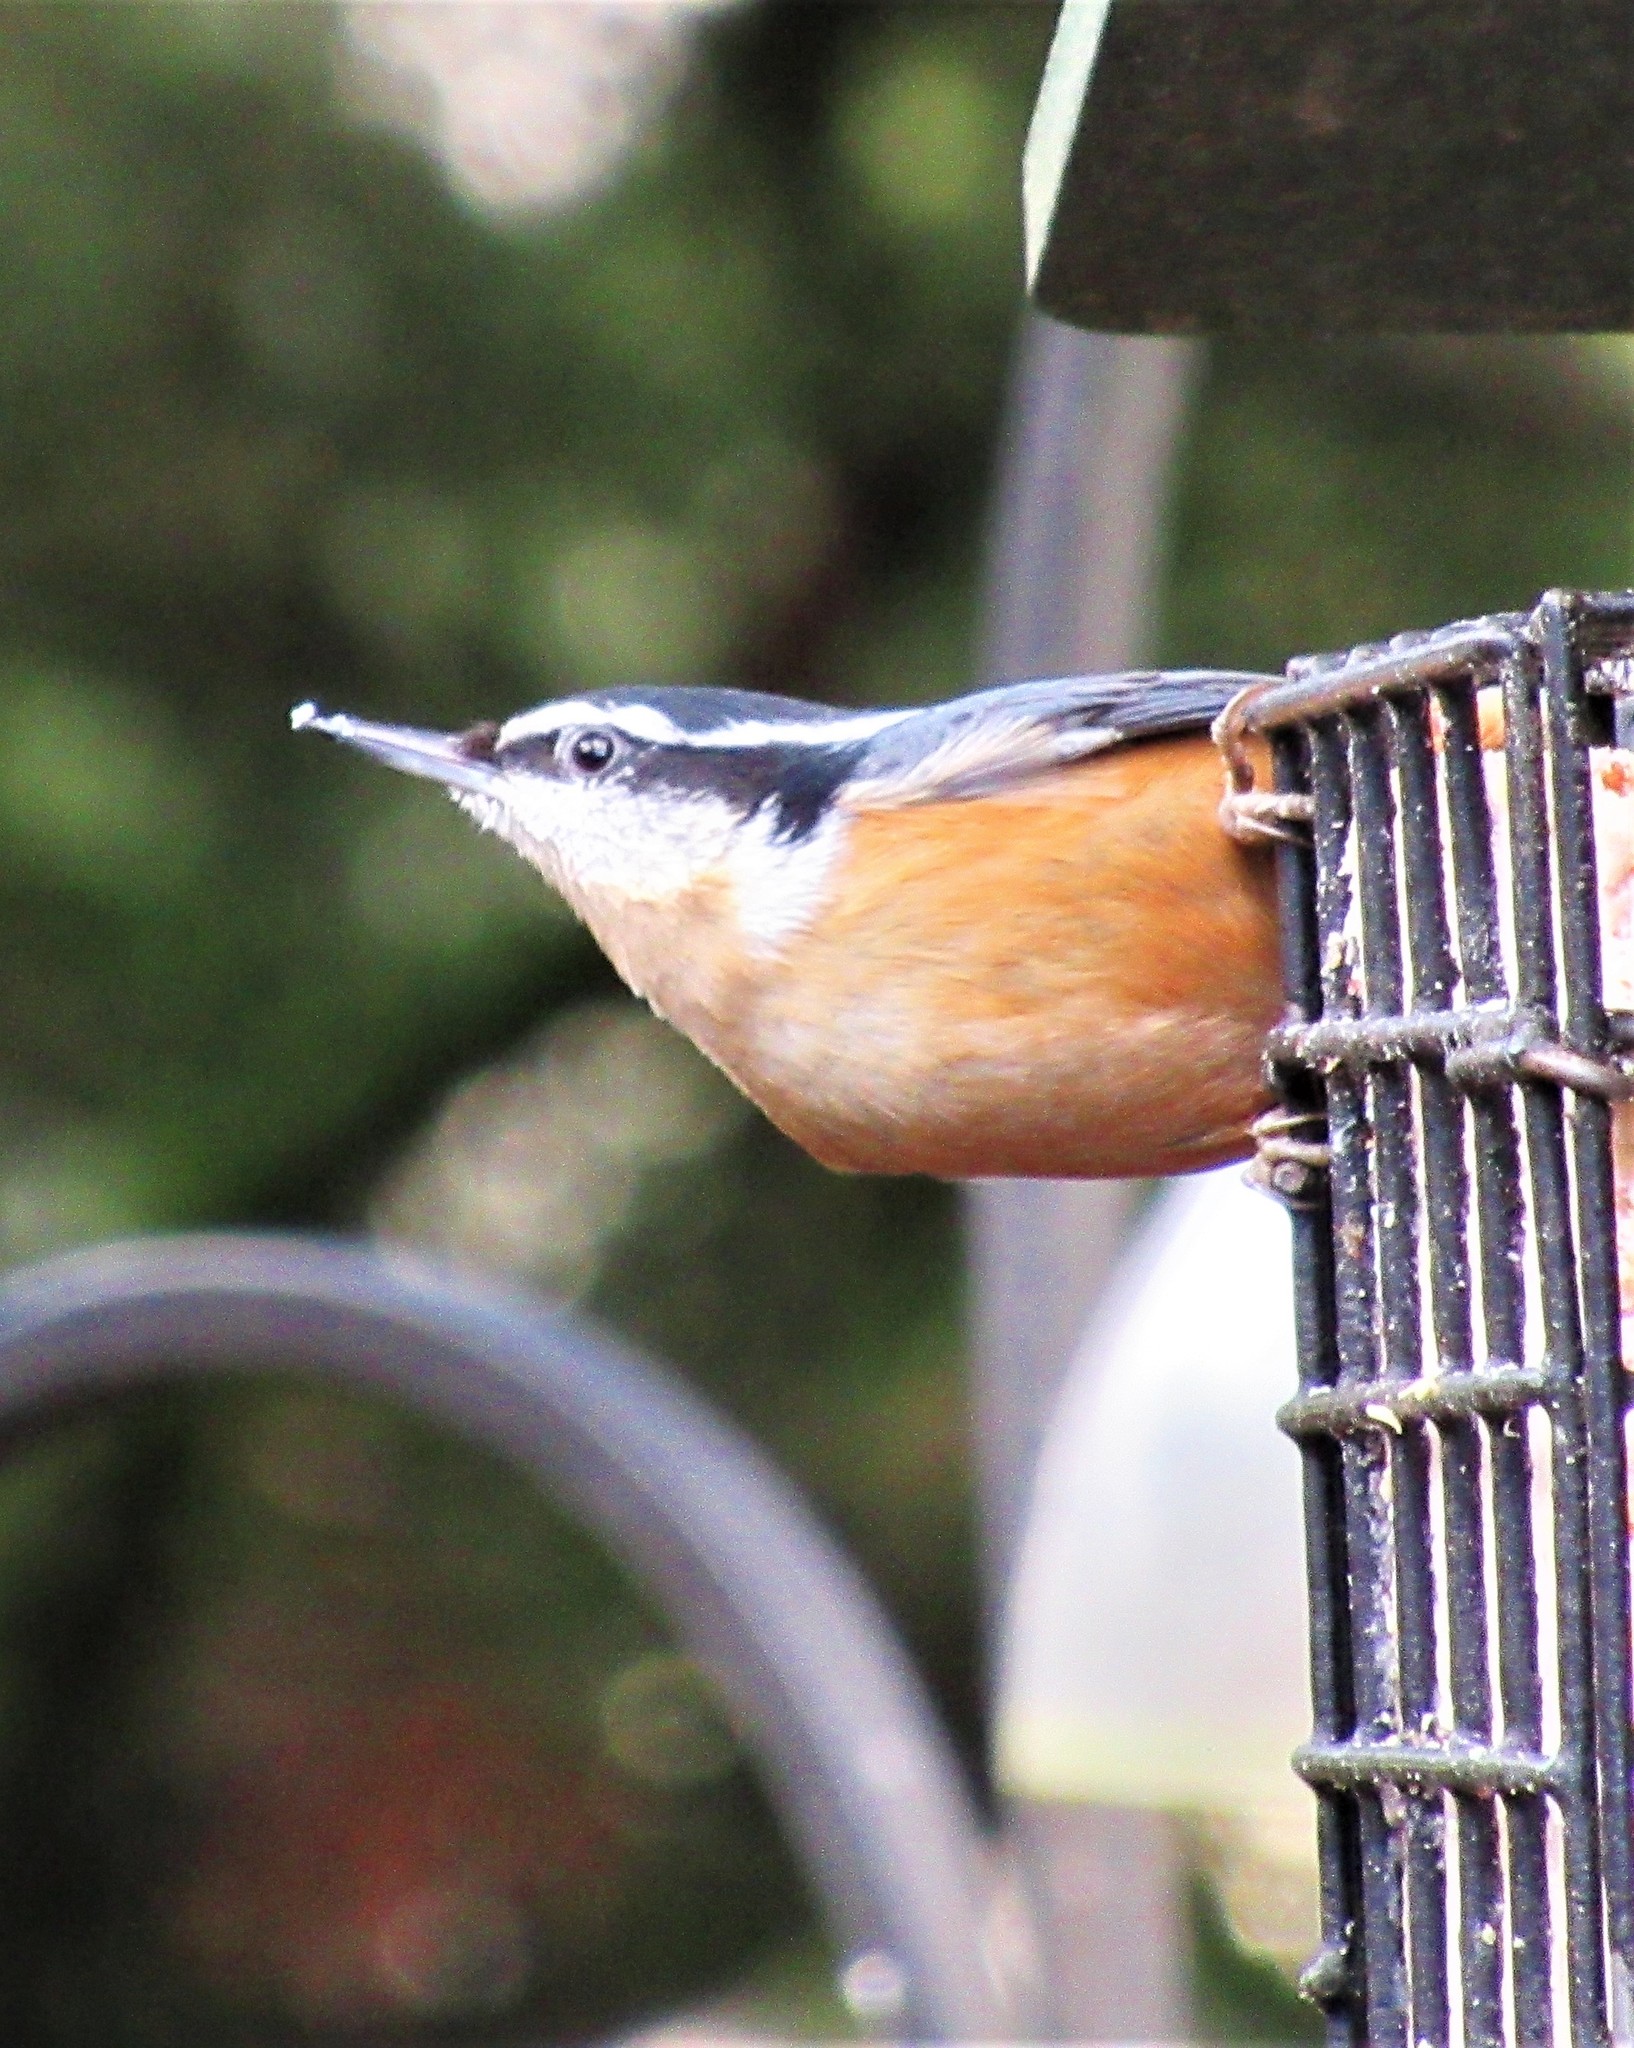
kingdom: Animalia
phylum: Chordata
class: Aves
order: Passeriformes
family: Sittidae
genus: Sitta
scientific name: Sitta canadensis
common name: Red-breasted nuthatch
